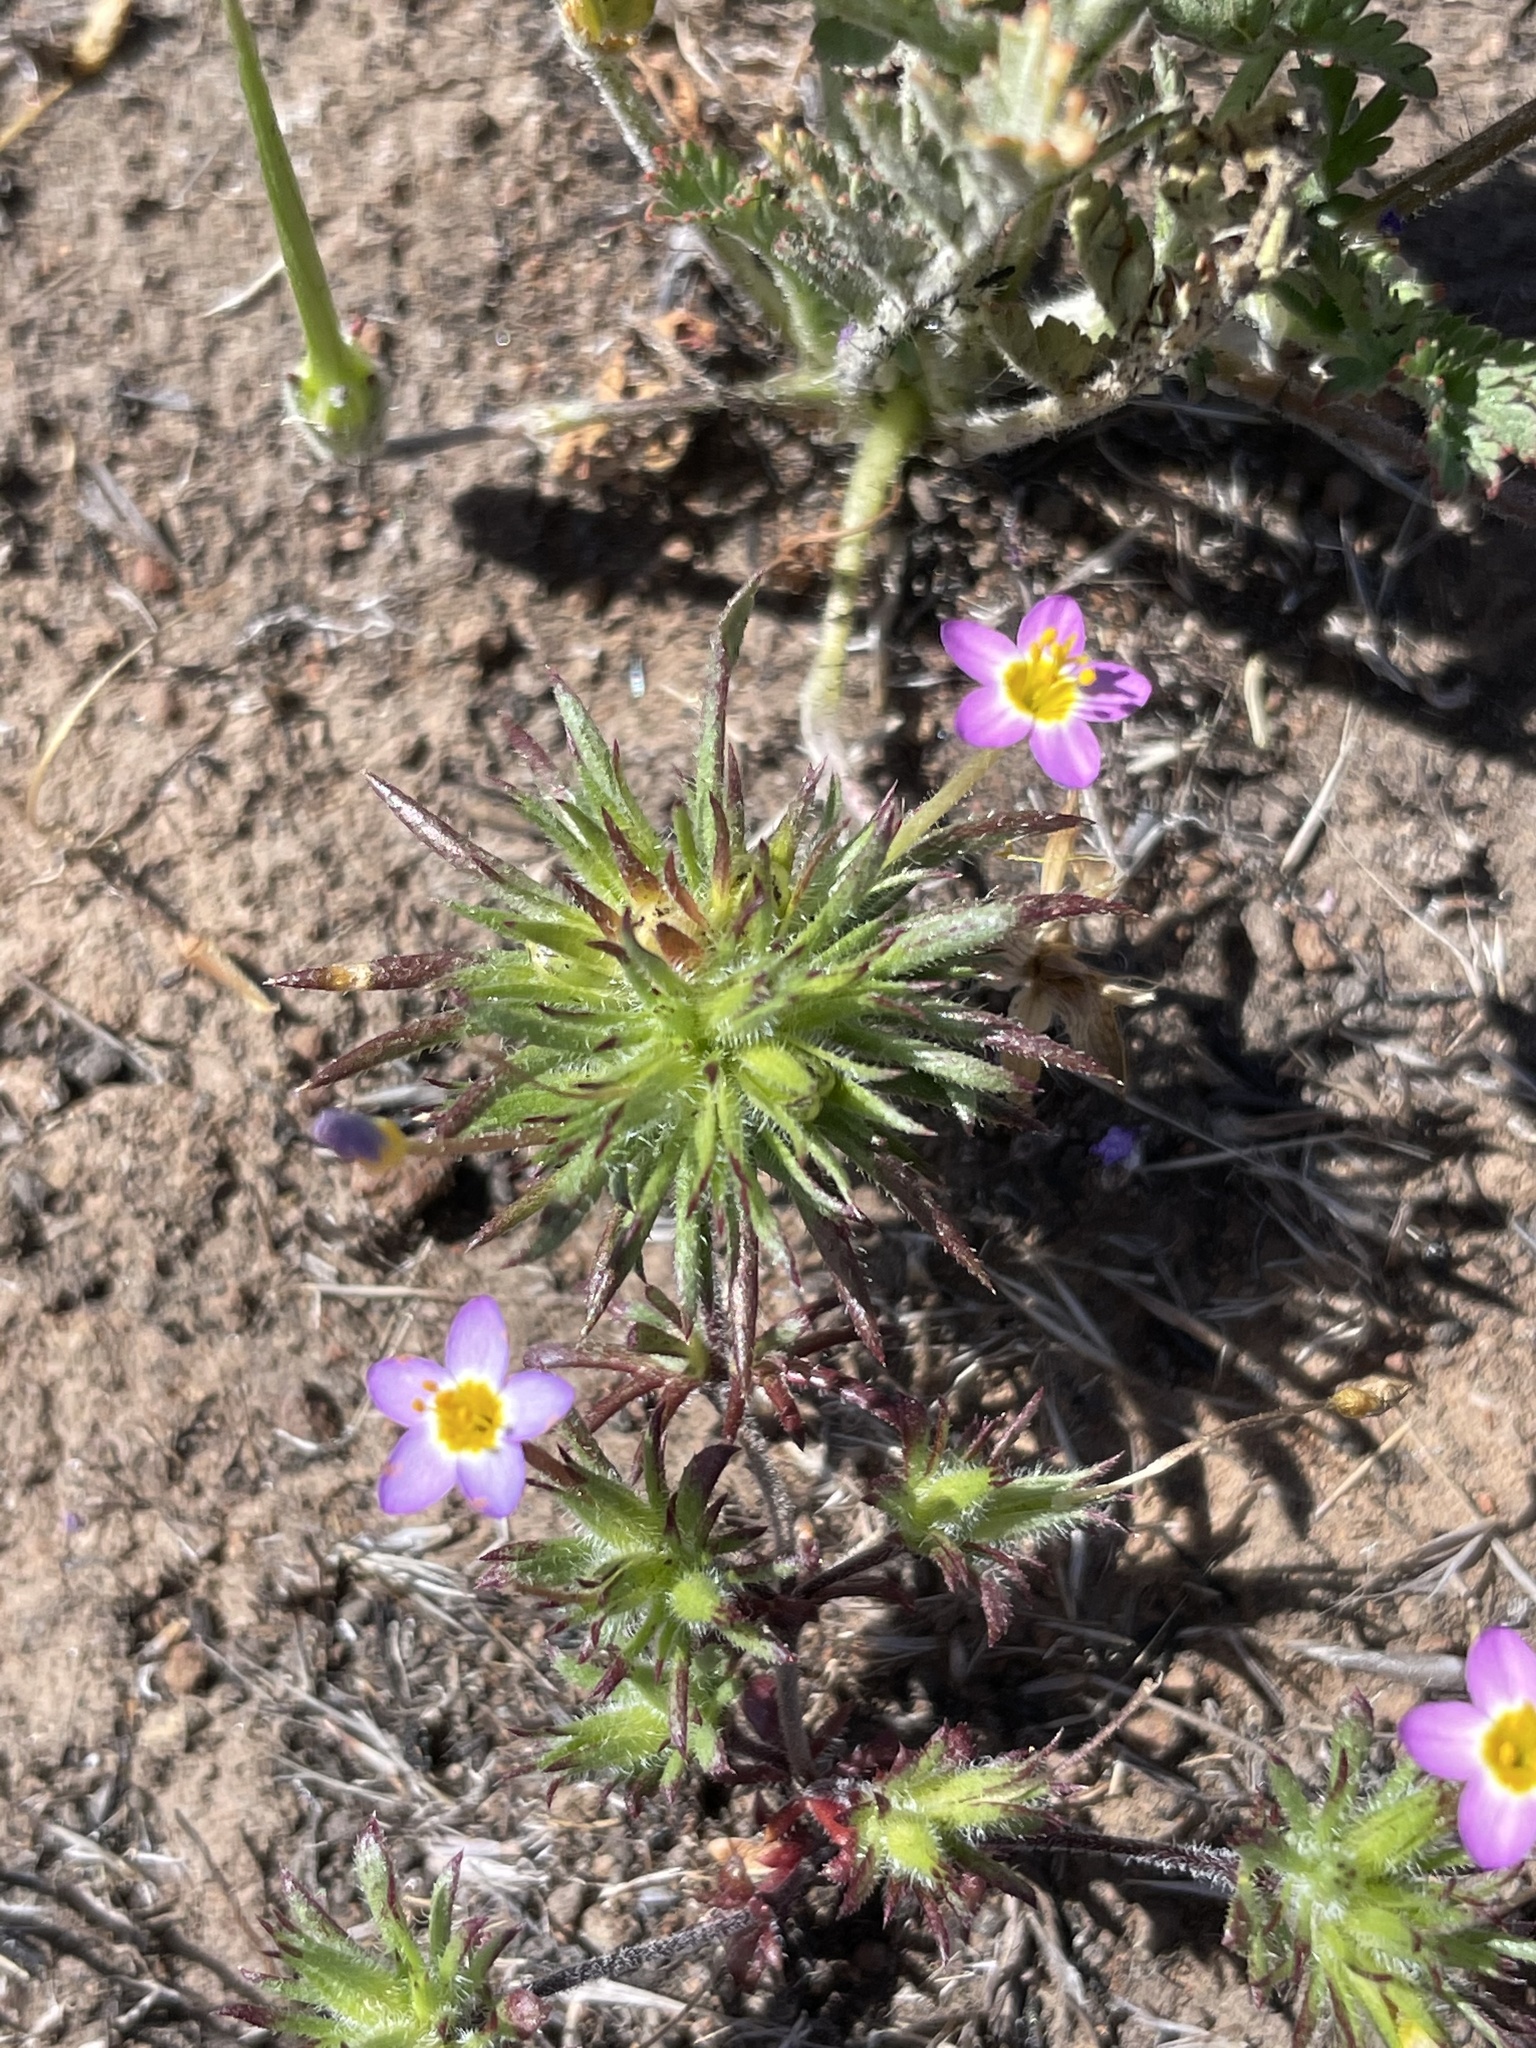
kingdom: Plantae
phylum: Tracheophyta
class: Magnoliopsida
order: Ericales
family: Polemoniaceae
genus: Leptosiphon
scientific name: Leptosiphon bicolor
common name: True babystars
